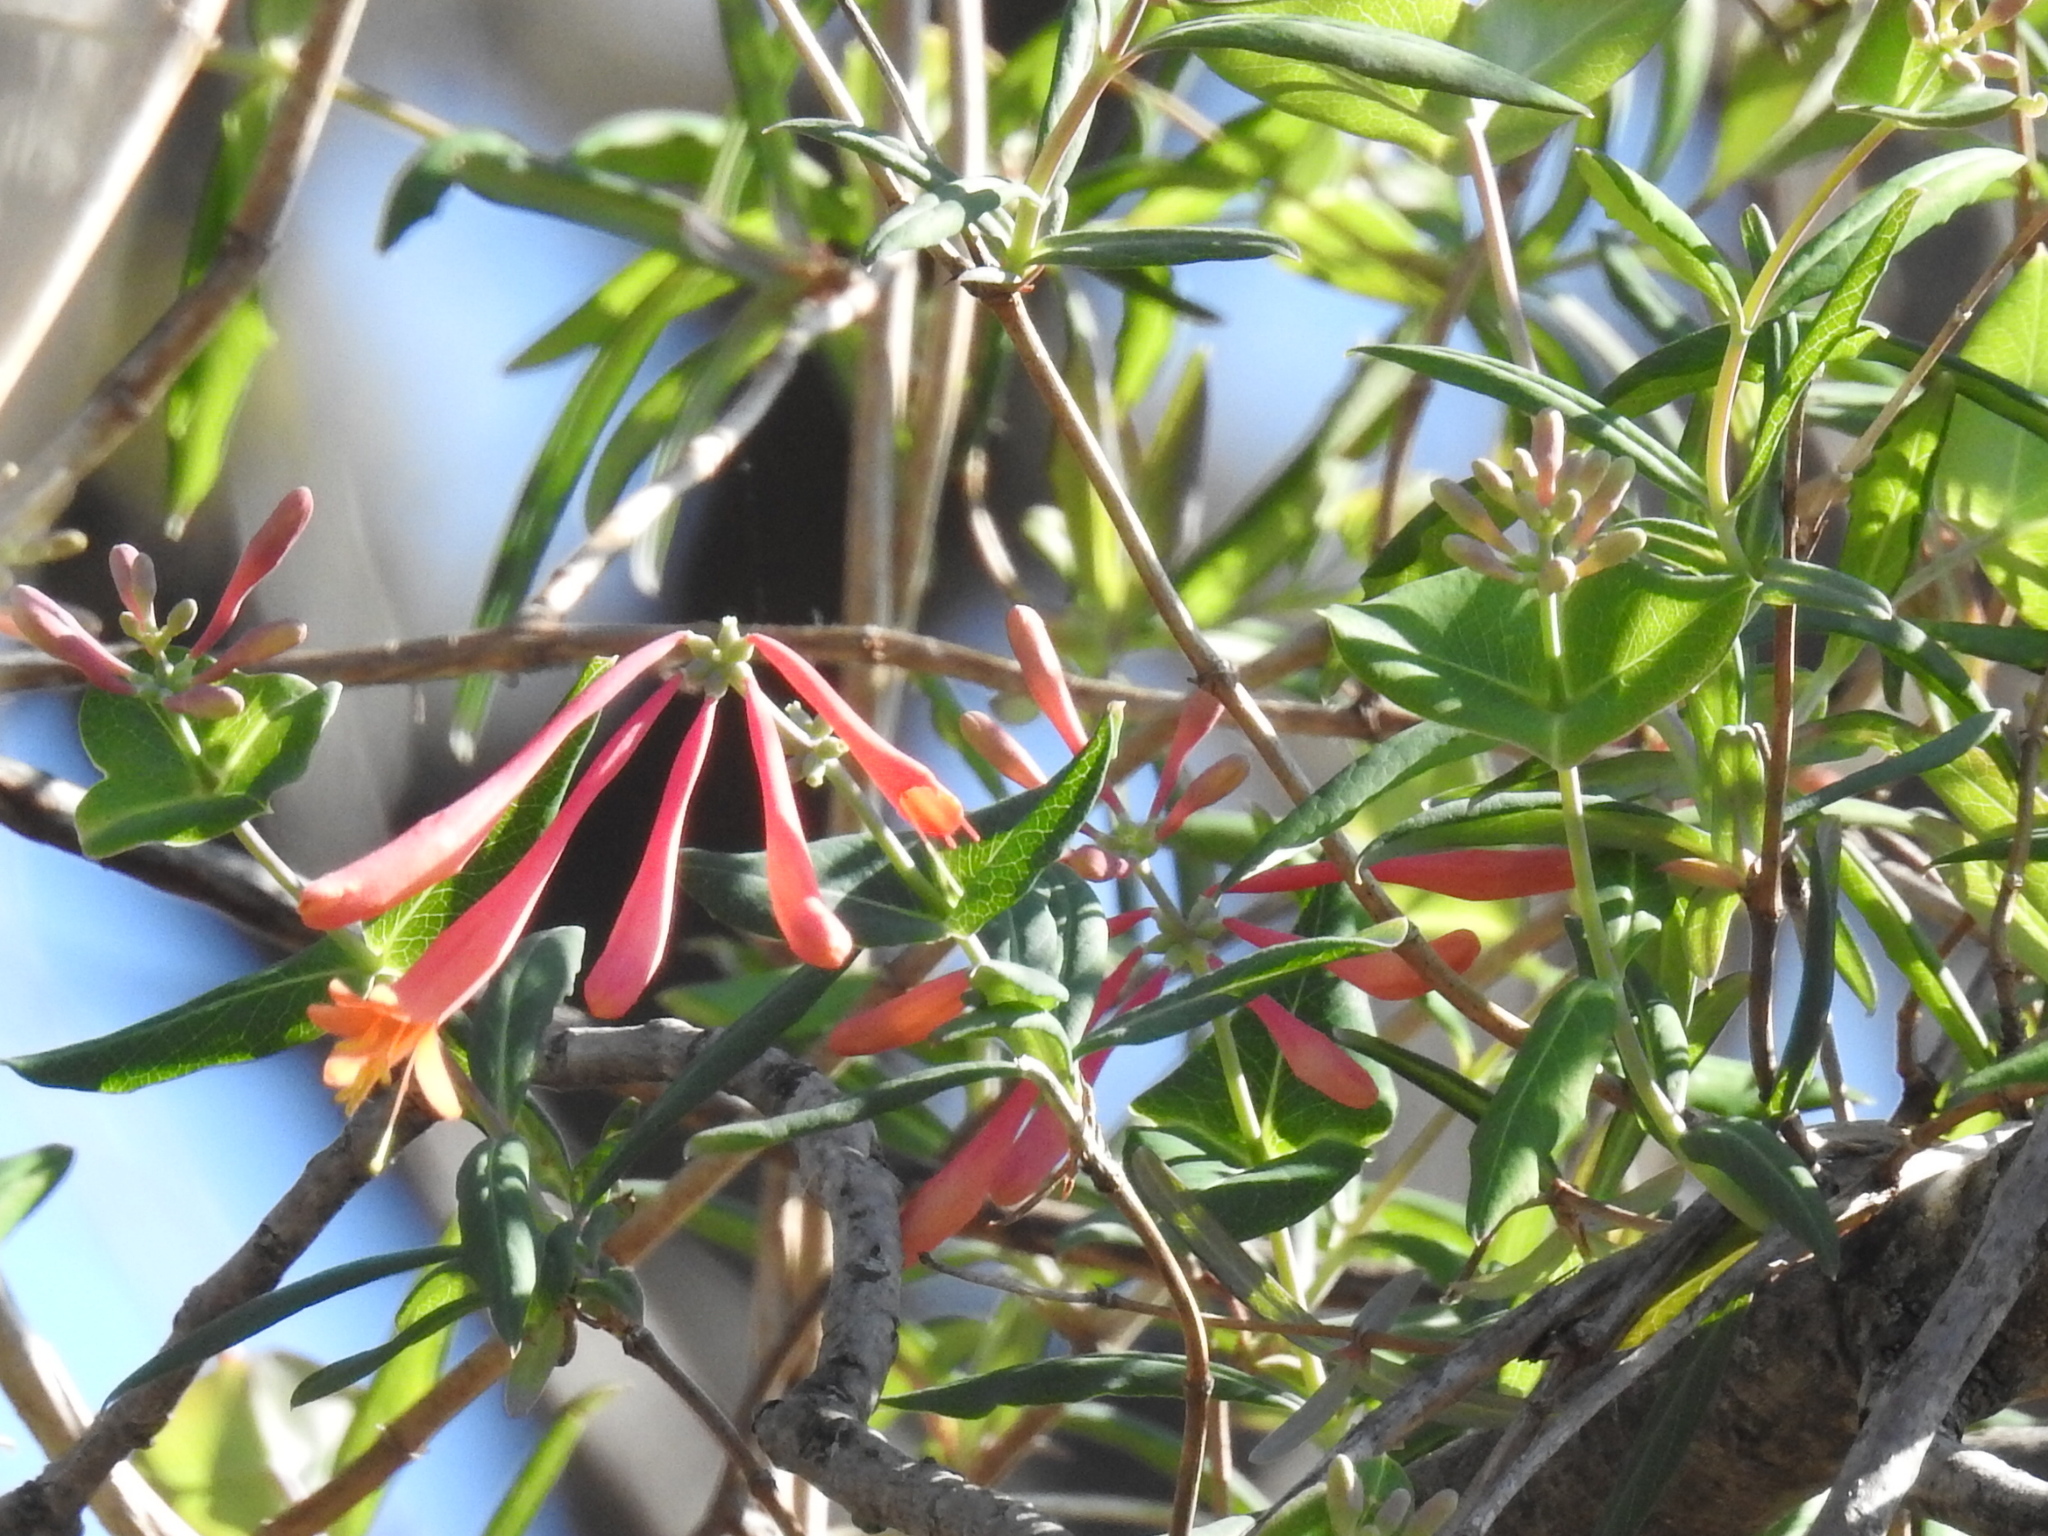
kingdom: Plantae
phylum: Tracheophyta
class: Magnoliopsida
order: Dipsacales
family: Caprifoliaceae
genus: Lonicera
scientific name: Lonicera sempervirens
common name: Coral honeysuckle
